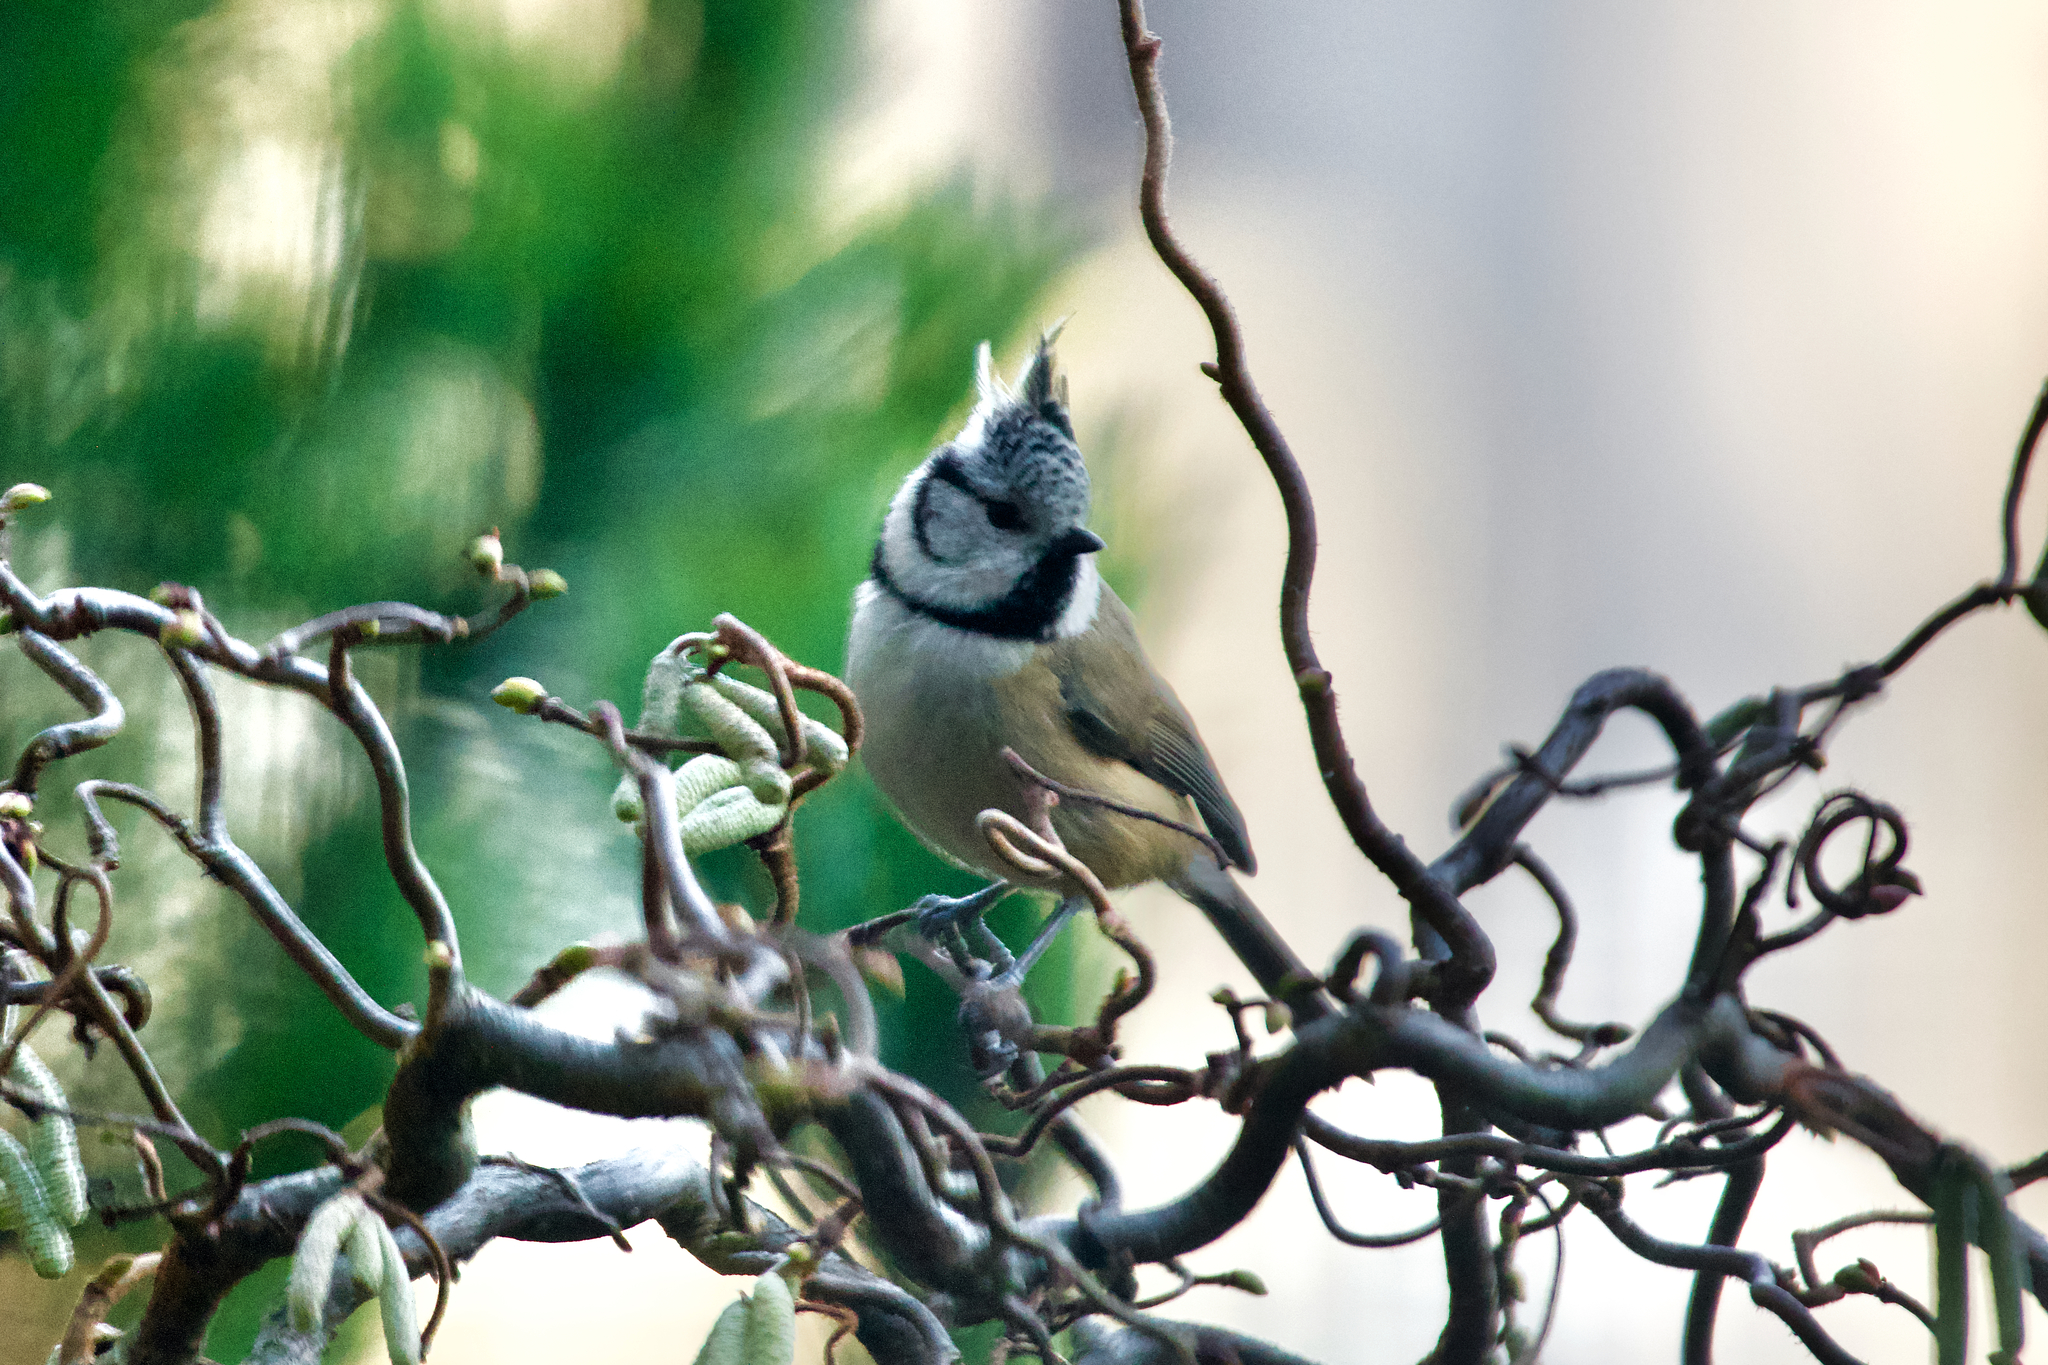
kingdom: Animalia
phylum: Chordata
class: Aves
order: Passeriformes
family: Paridae
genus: Lophophanes
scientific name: Lophophanes cristatus
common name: European crested tit
